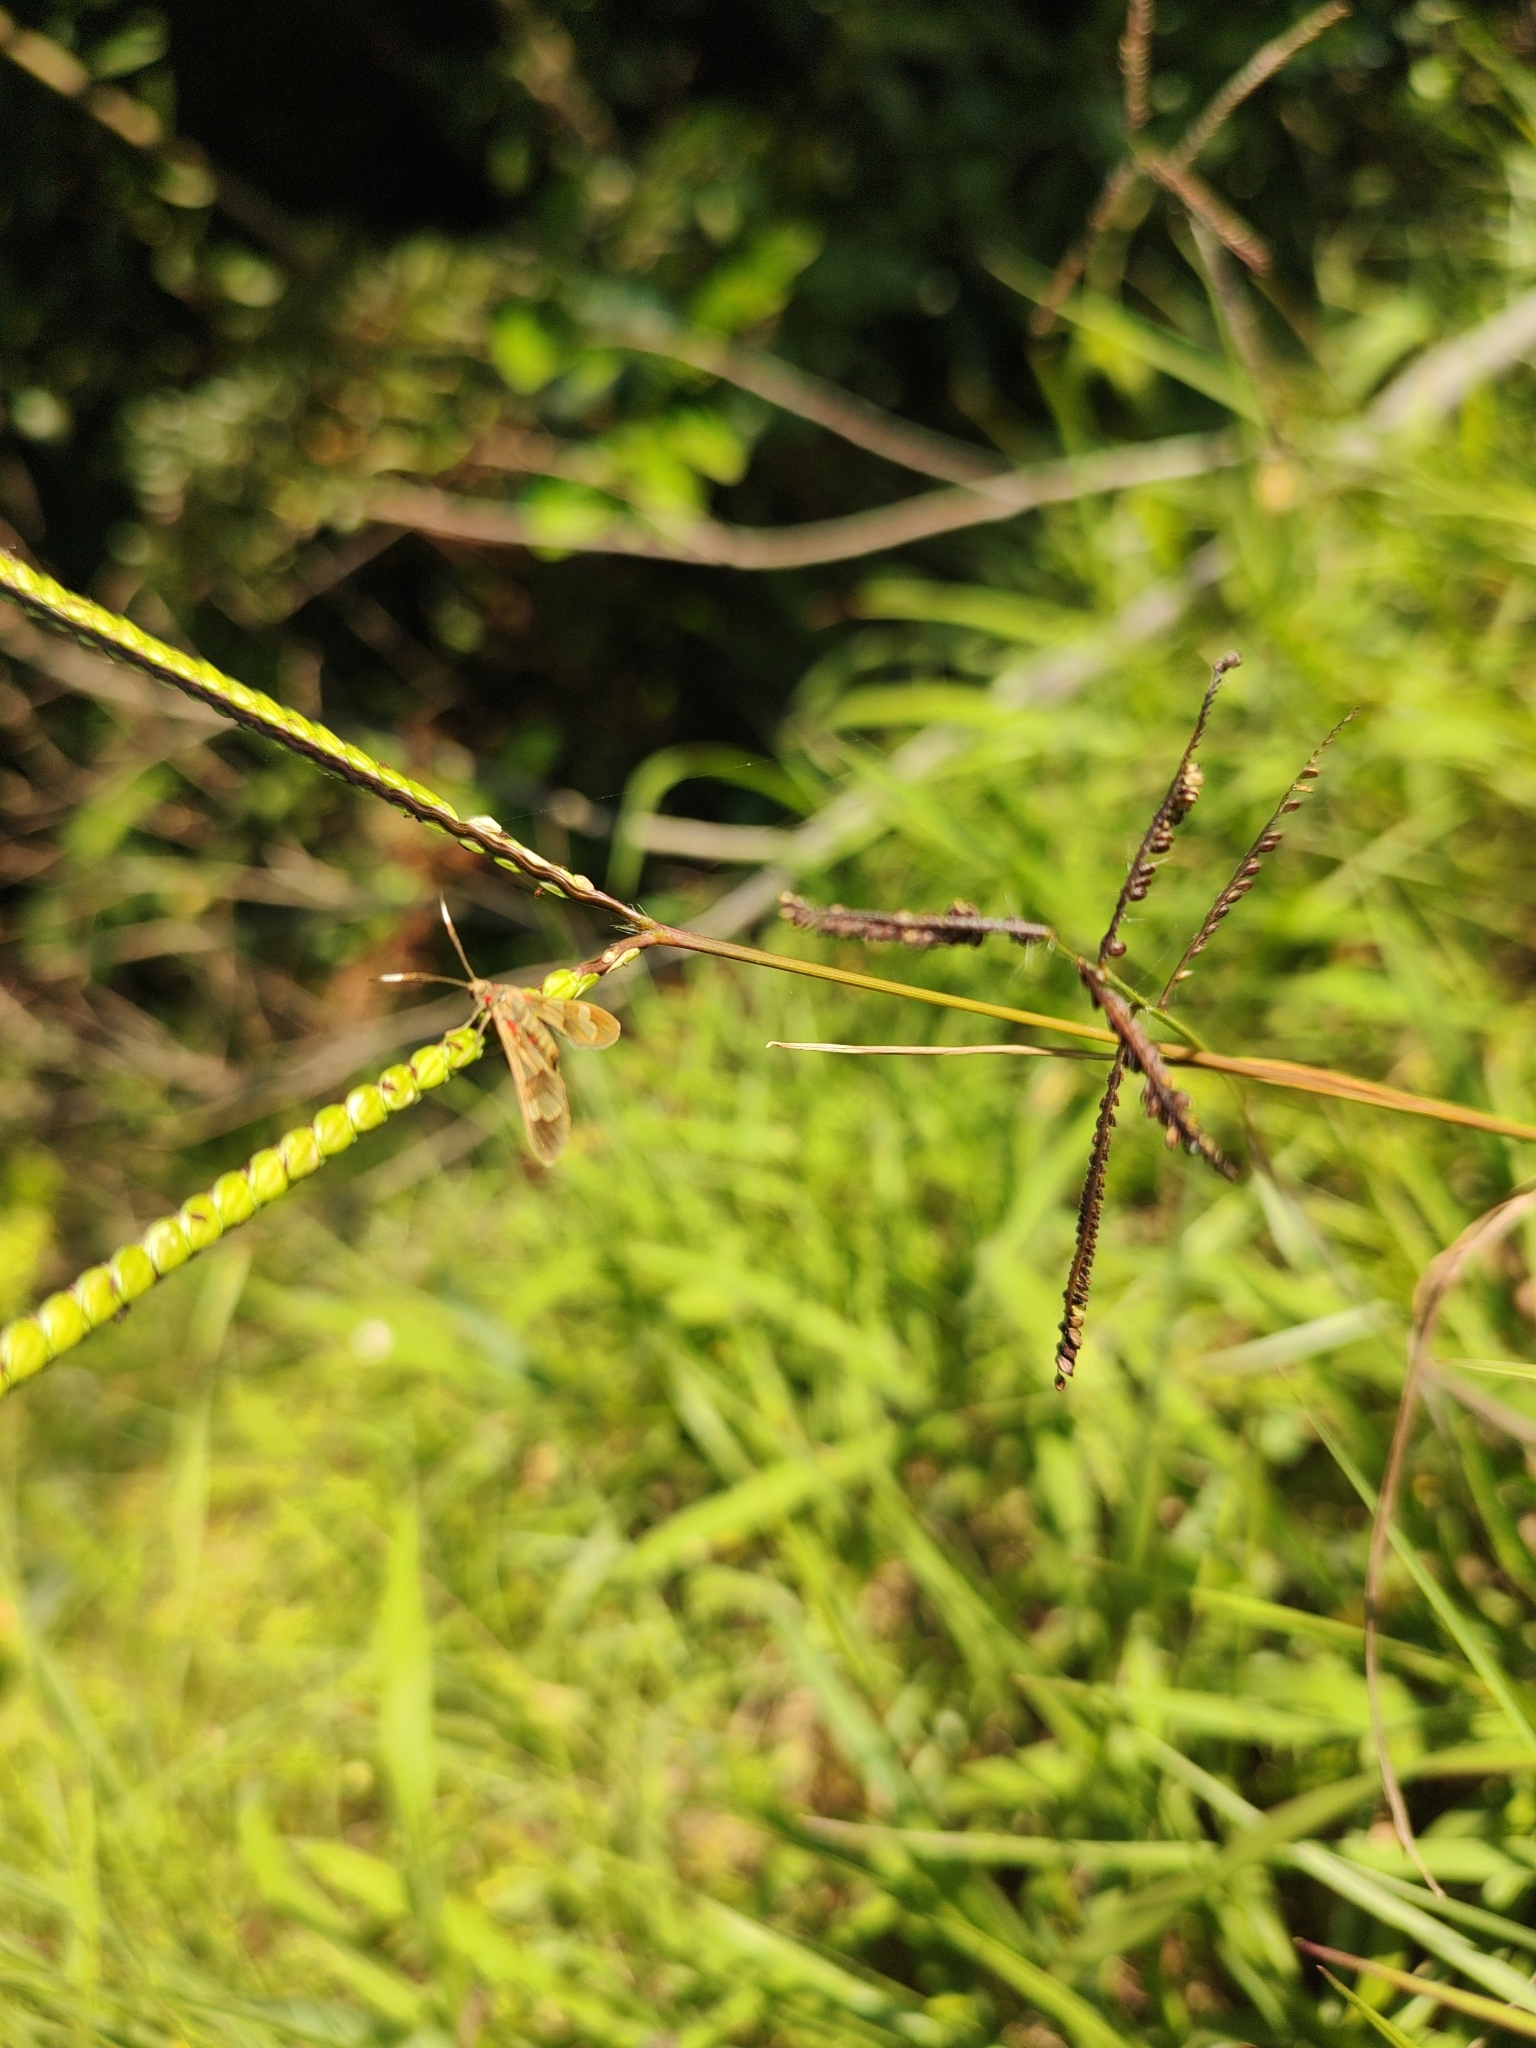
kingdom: Animalia
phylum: Arthropoda
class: Insecta
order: Lepidoptera
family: Erebidae
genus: Phoenicoprocta
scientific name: Phoenicoprocta teda
